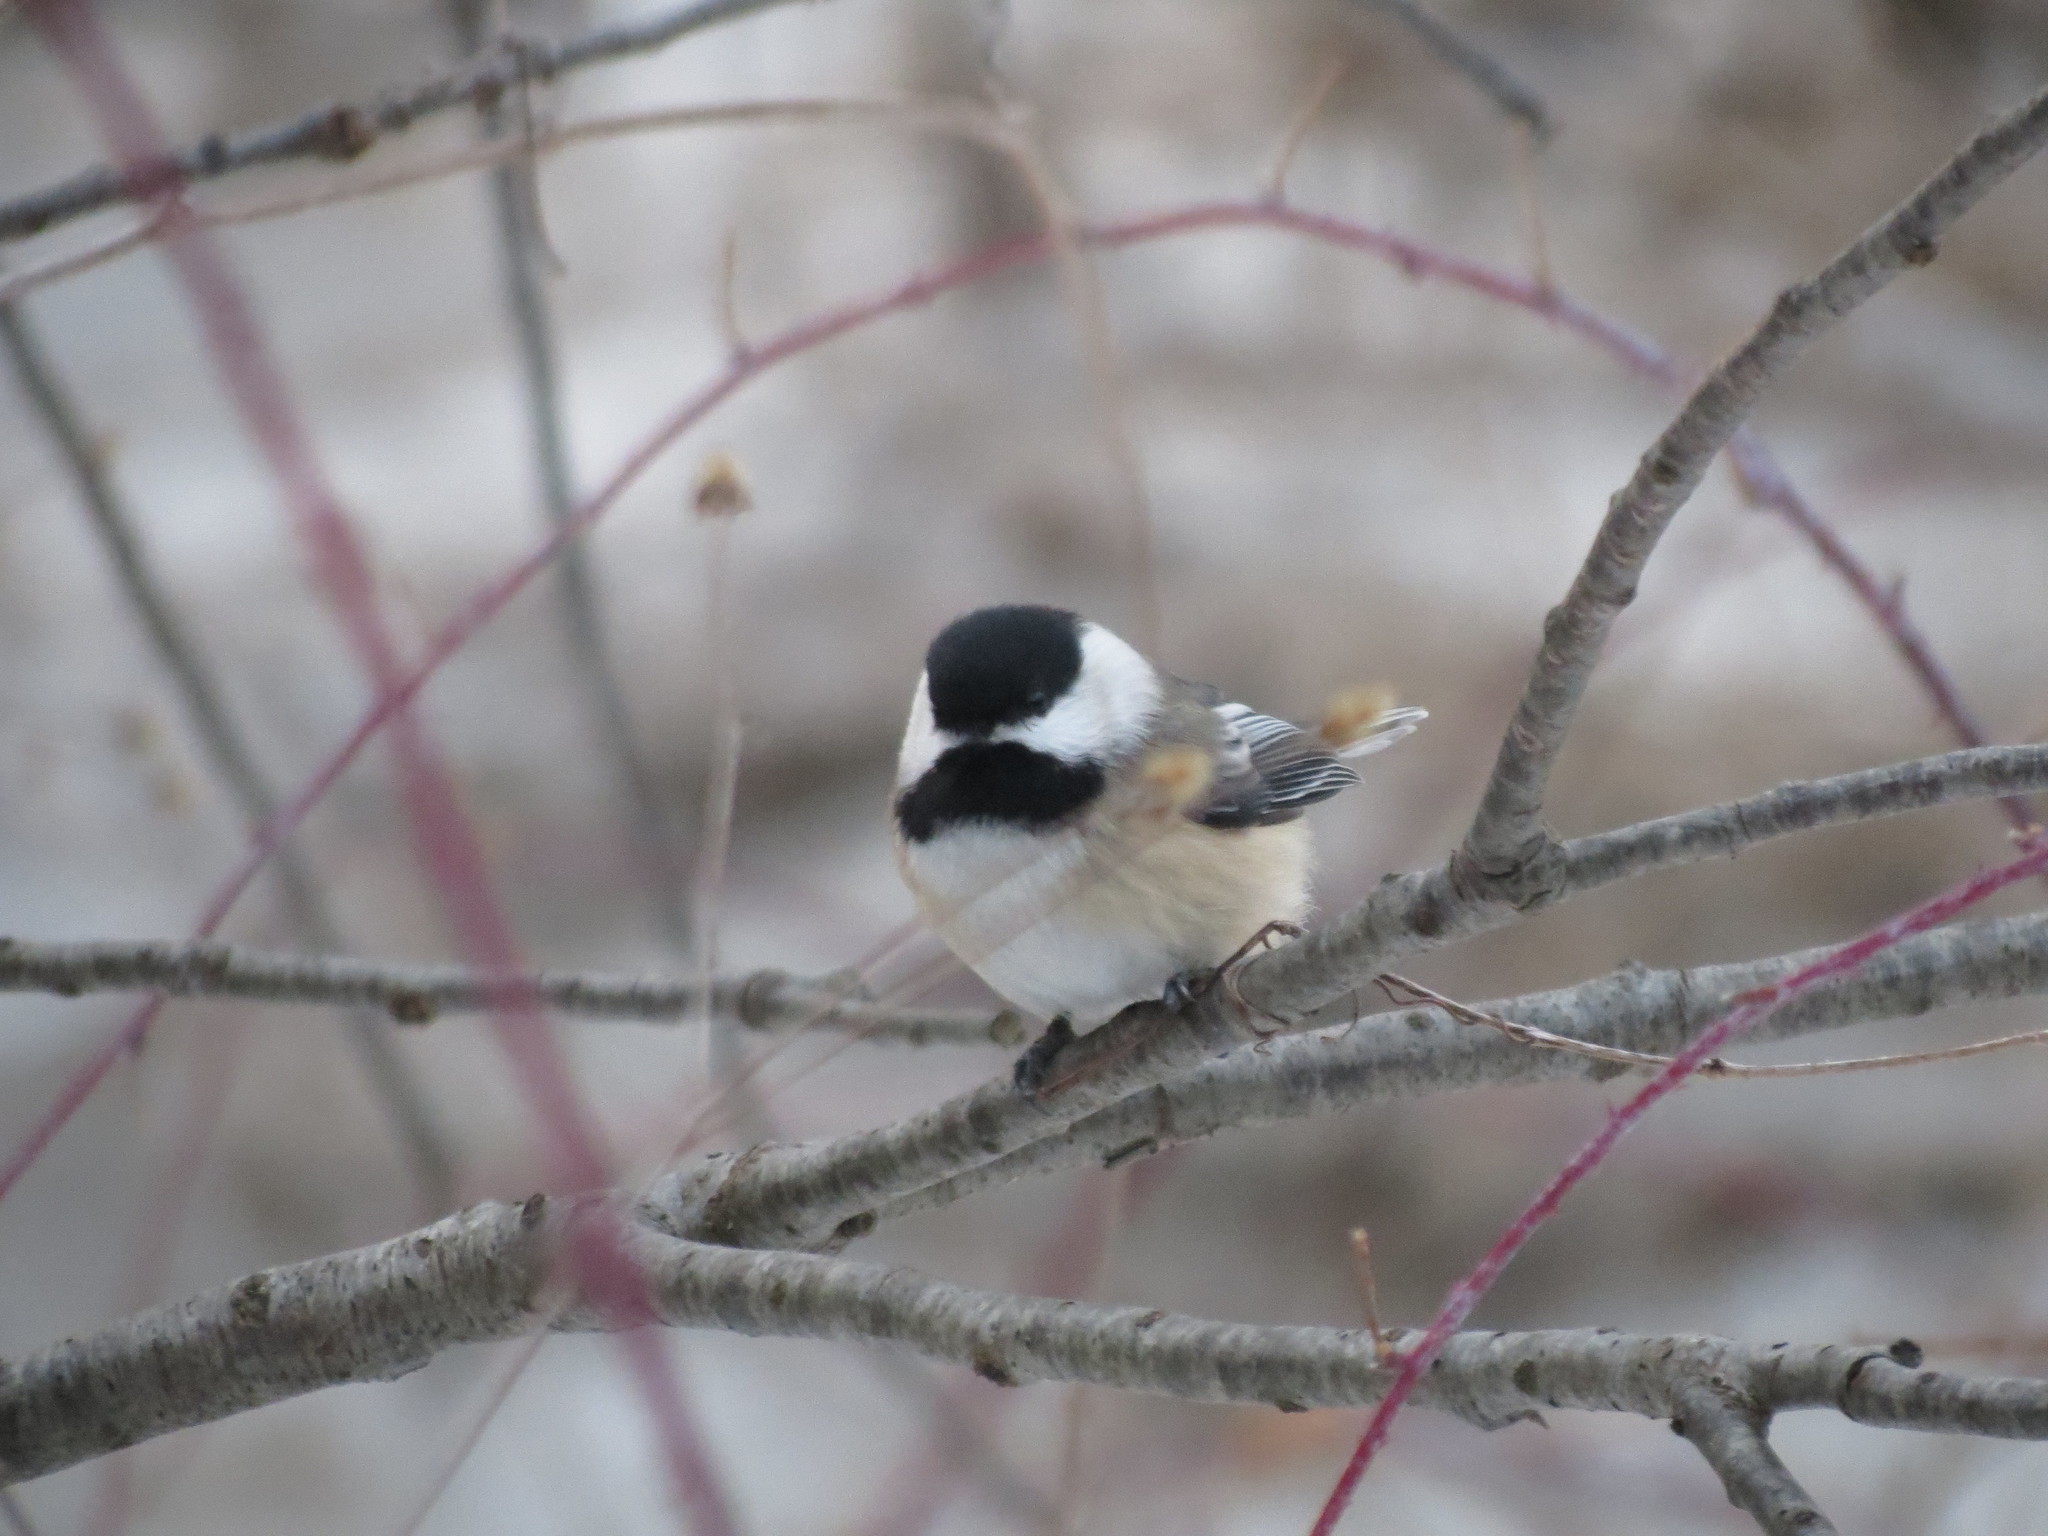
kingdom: Animalia
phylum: Chordata
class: Aves
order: Passeriformes
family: Paridae
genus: Poecile
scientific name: Poecile atricapillus
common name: Black-capped chickadee
